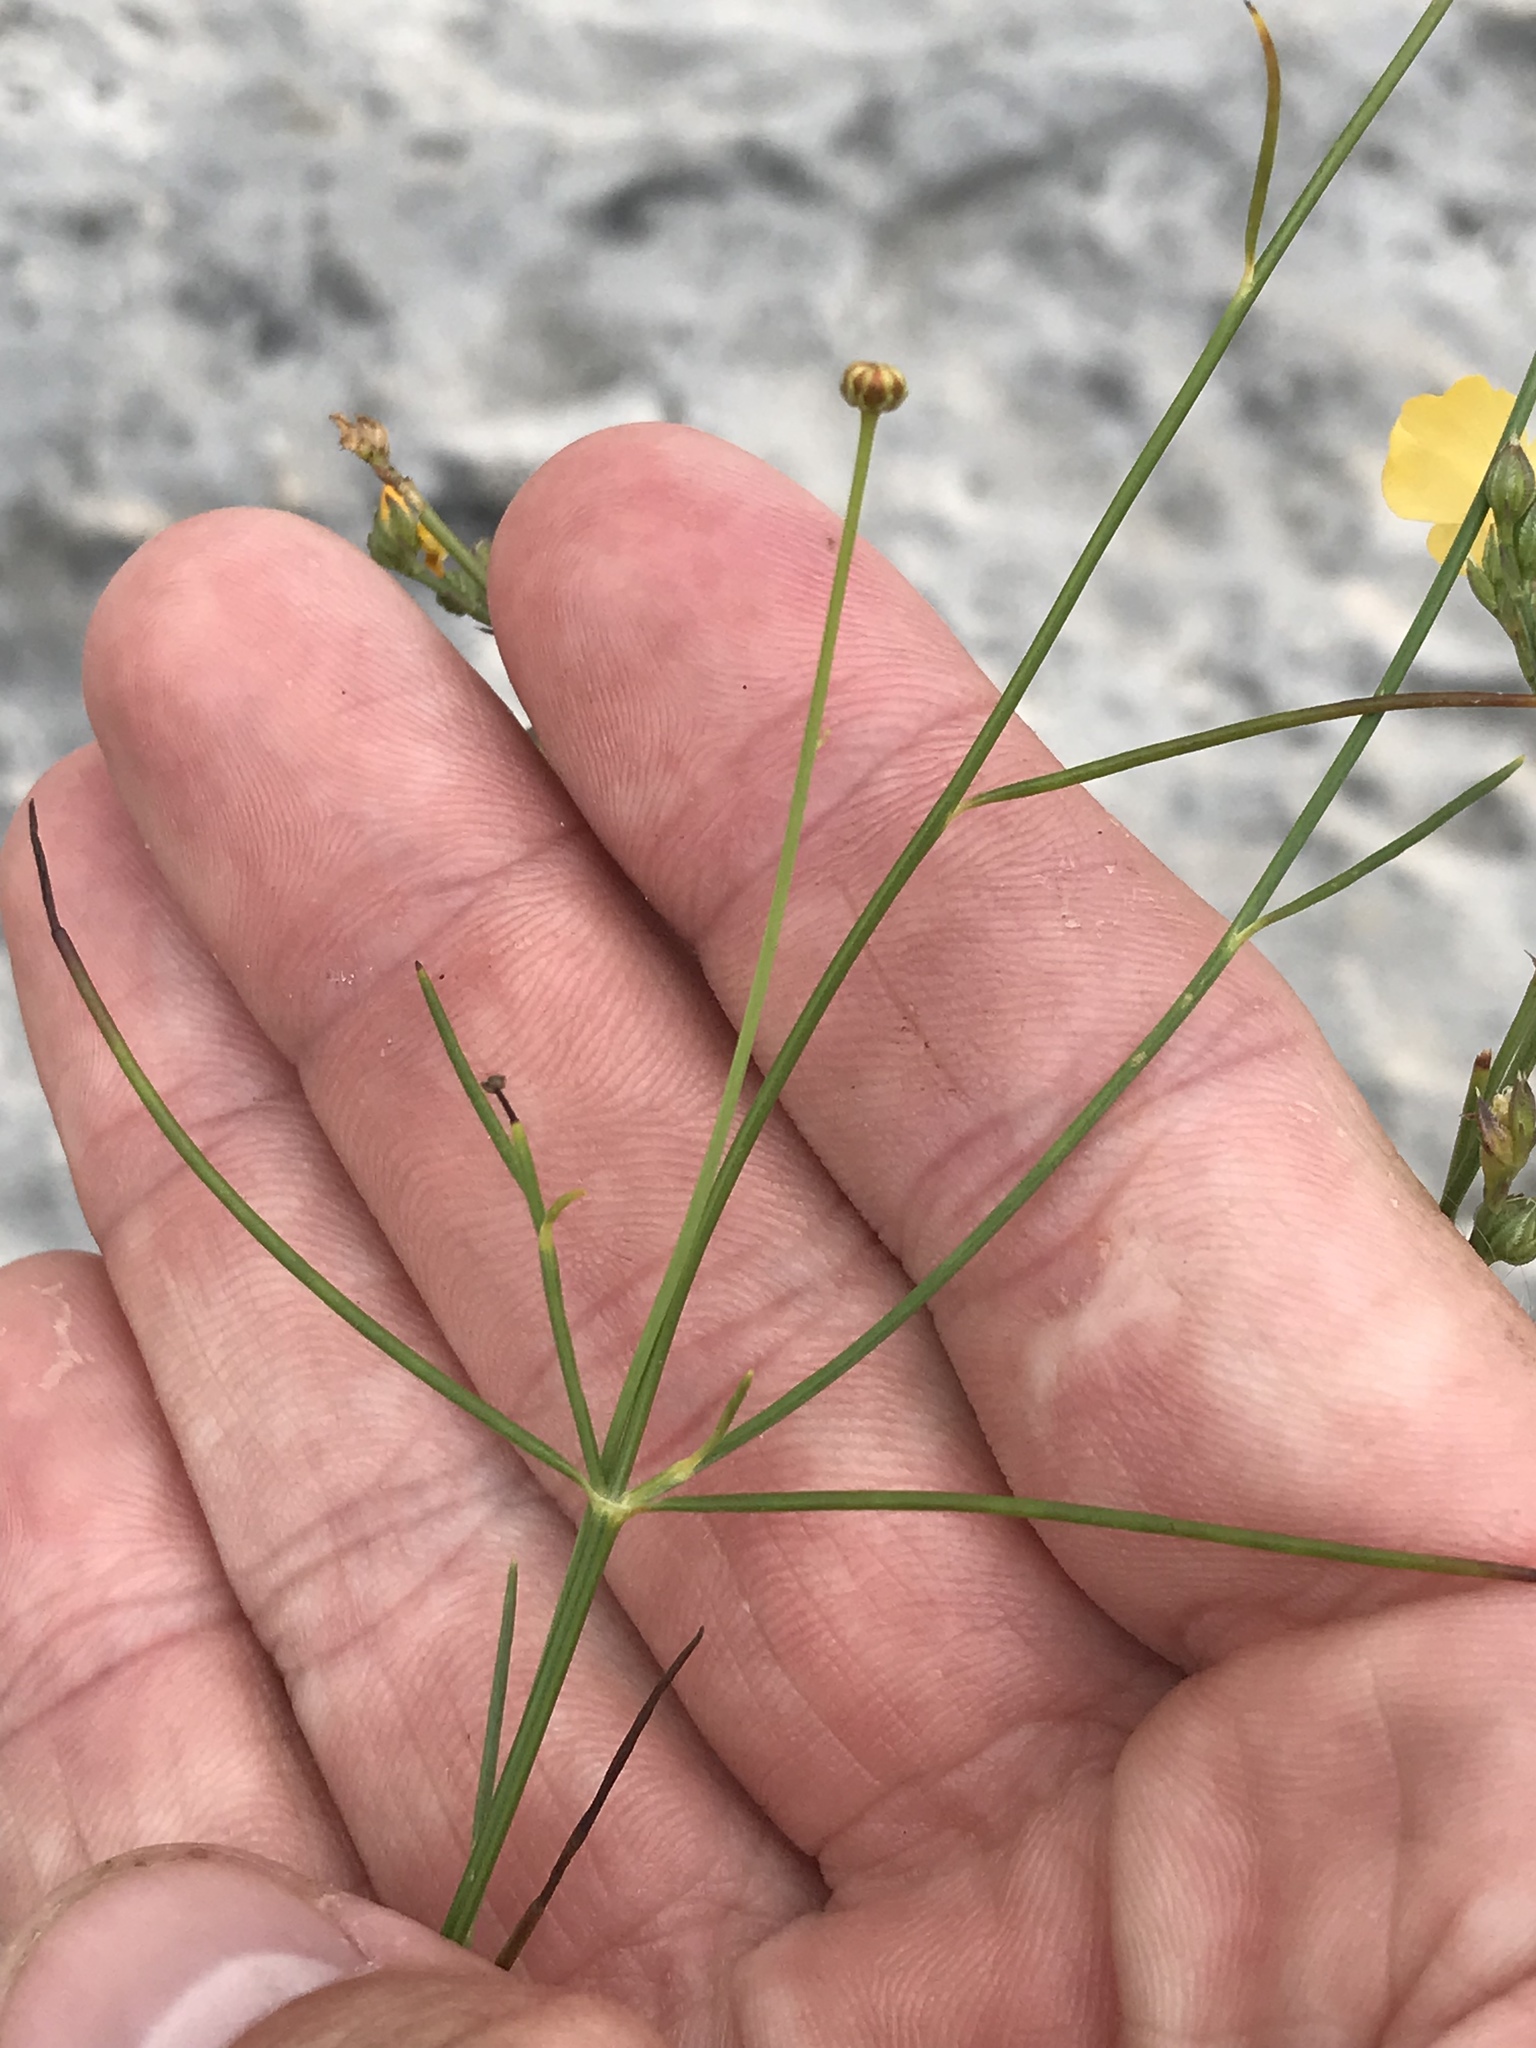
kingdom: Plantae
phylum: Tracheophyta
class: Magnoliopsida
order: Malpighiales
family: Linaceae
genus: Linum
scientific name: Linum rupestre
